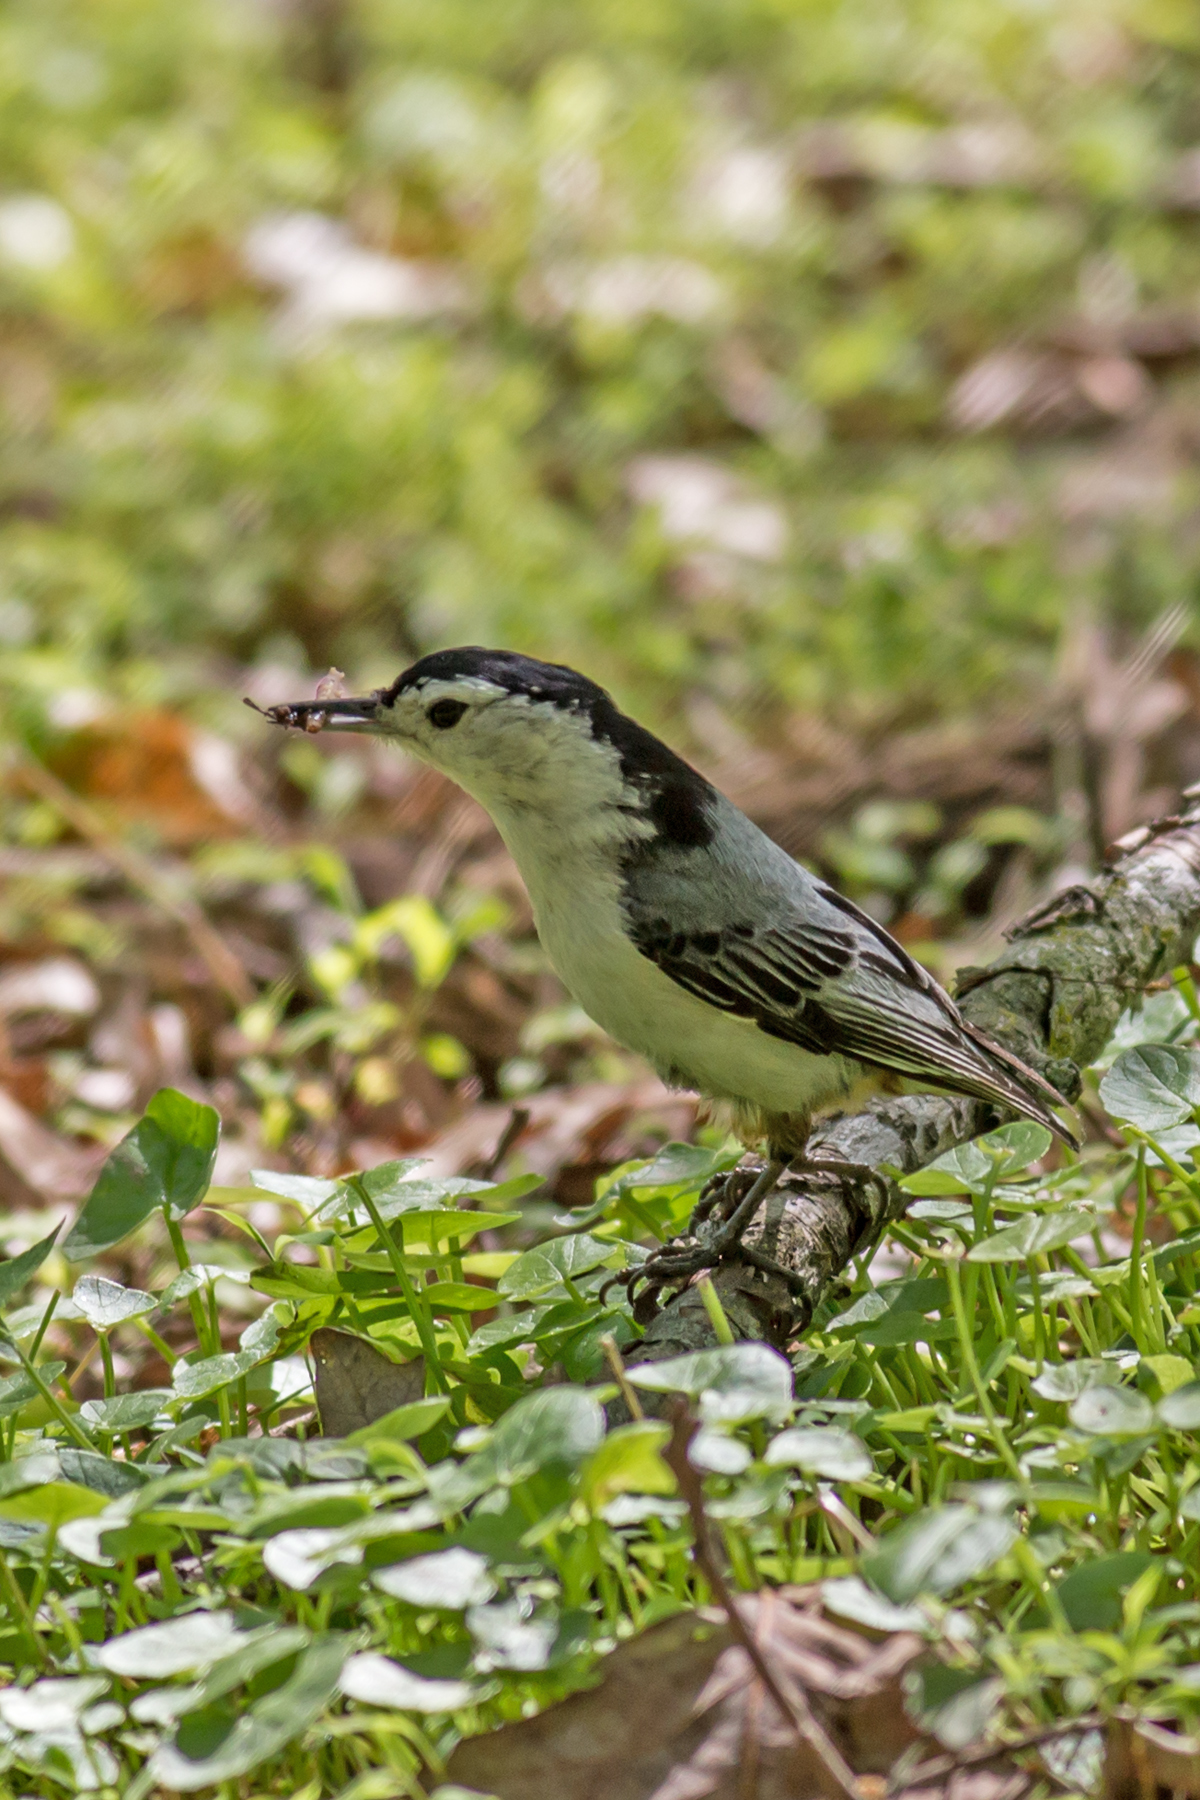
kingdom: Animalia
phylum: Chordata
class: Aves
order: Passeriformes
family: Sittidae
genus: Sitta
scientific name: Sitta carolinensis
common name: White-breasted nuthatch
